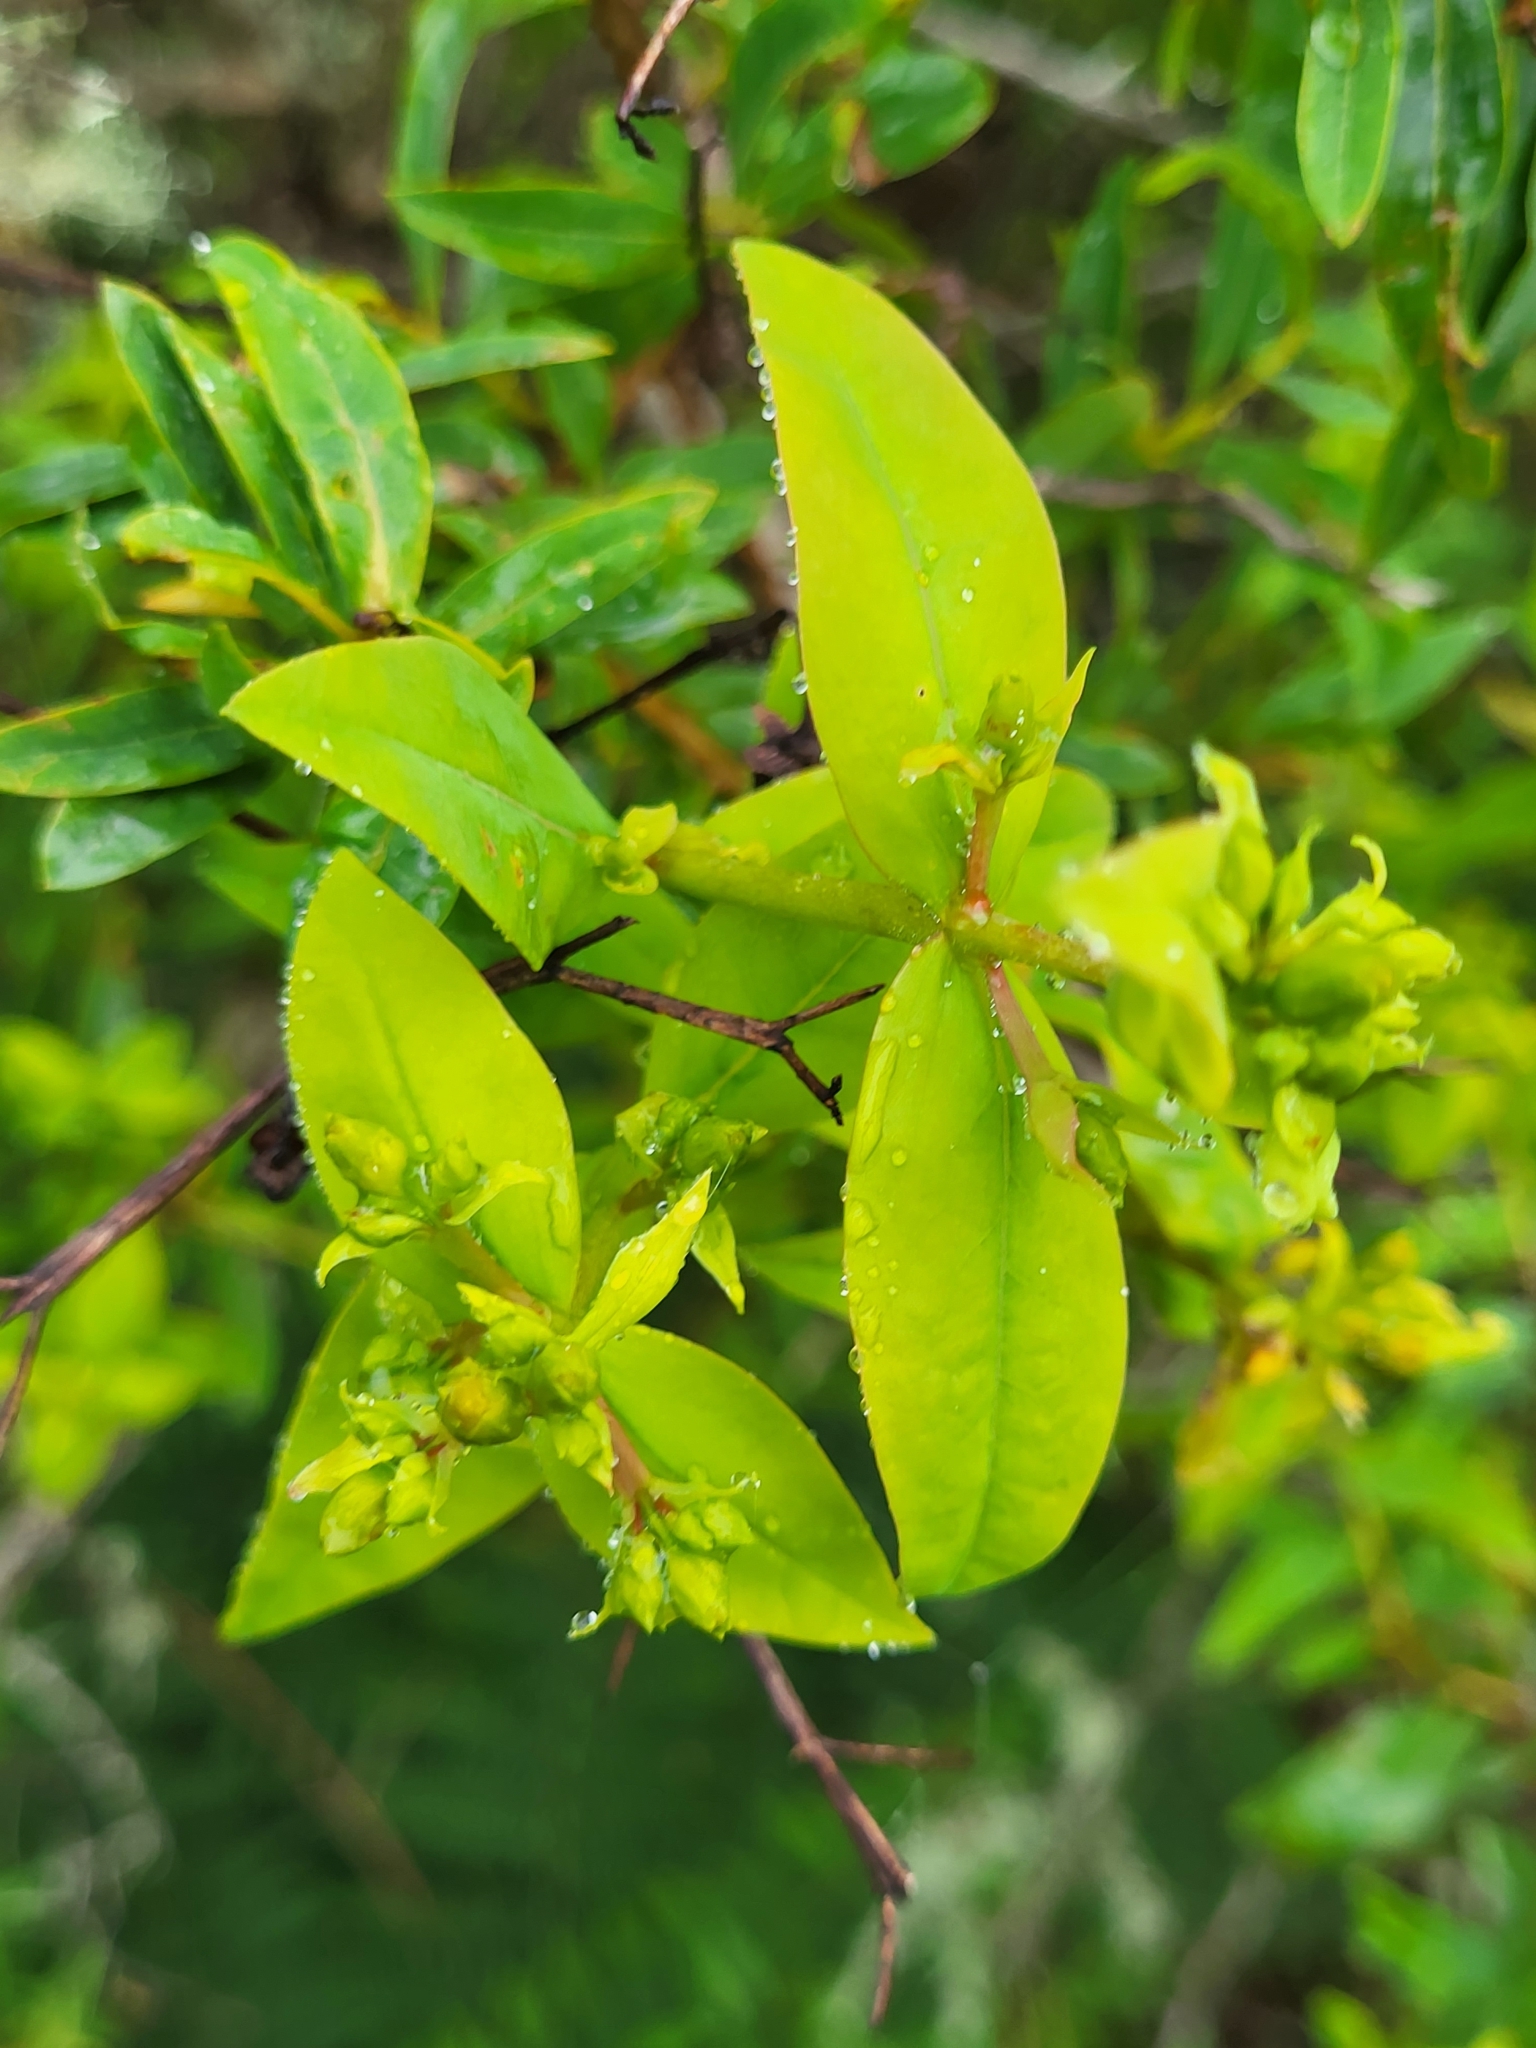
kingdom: Plantae
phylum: Tracheophyta
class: Magnoliopsida
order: Malpighiales
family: Hypericaceae
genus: Hypericum
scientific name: Hypericum grandifolium
